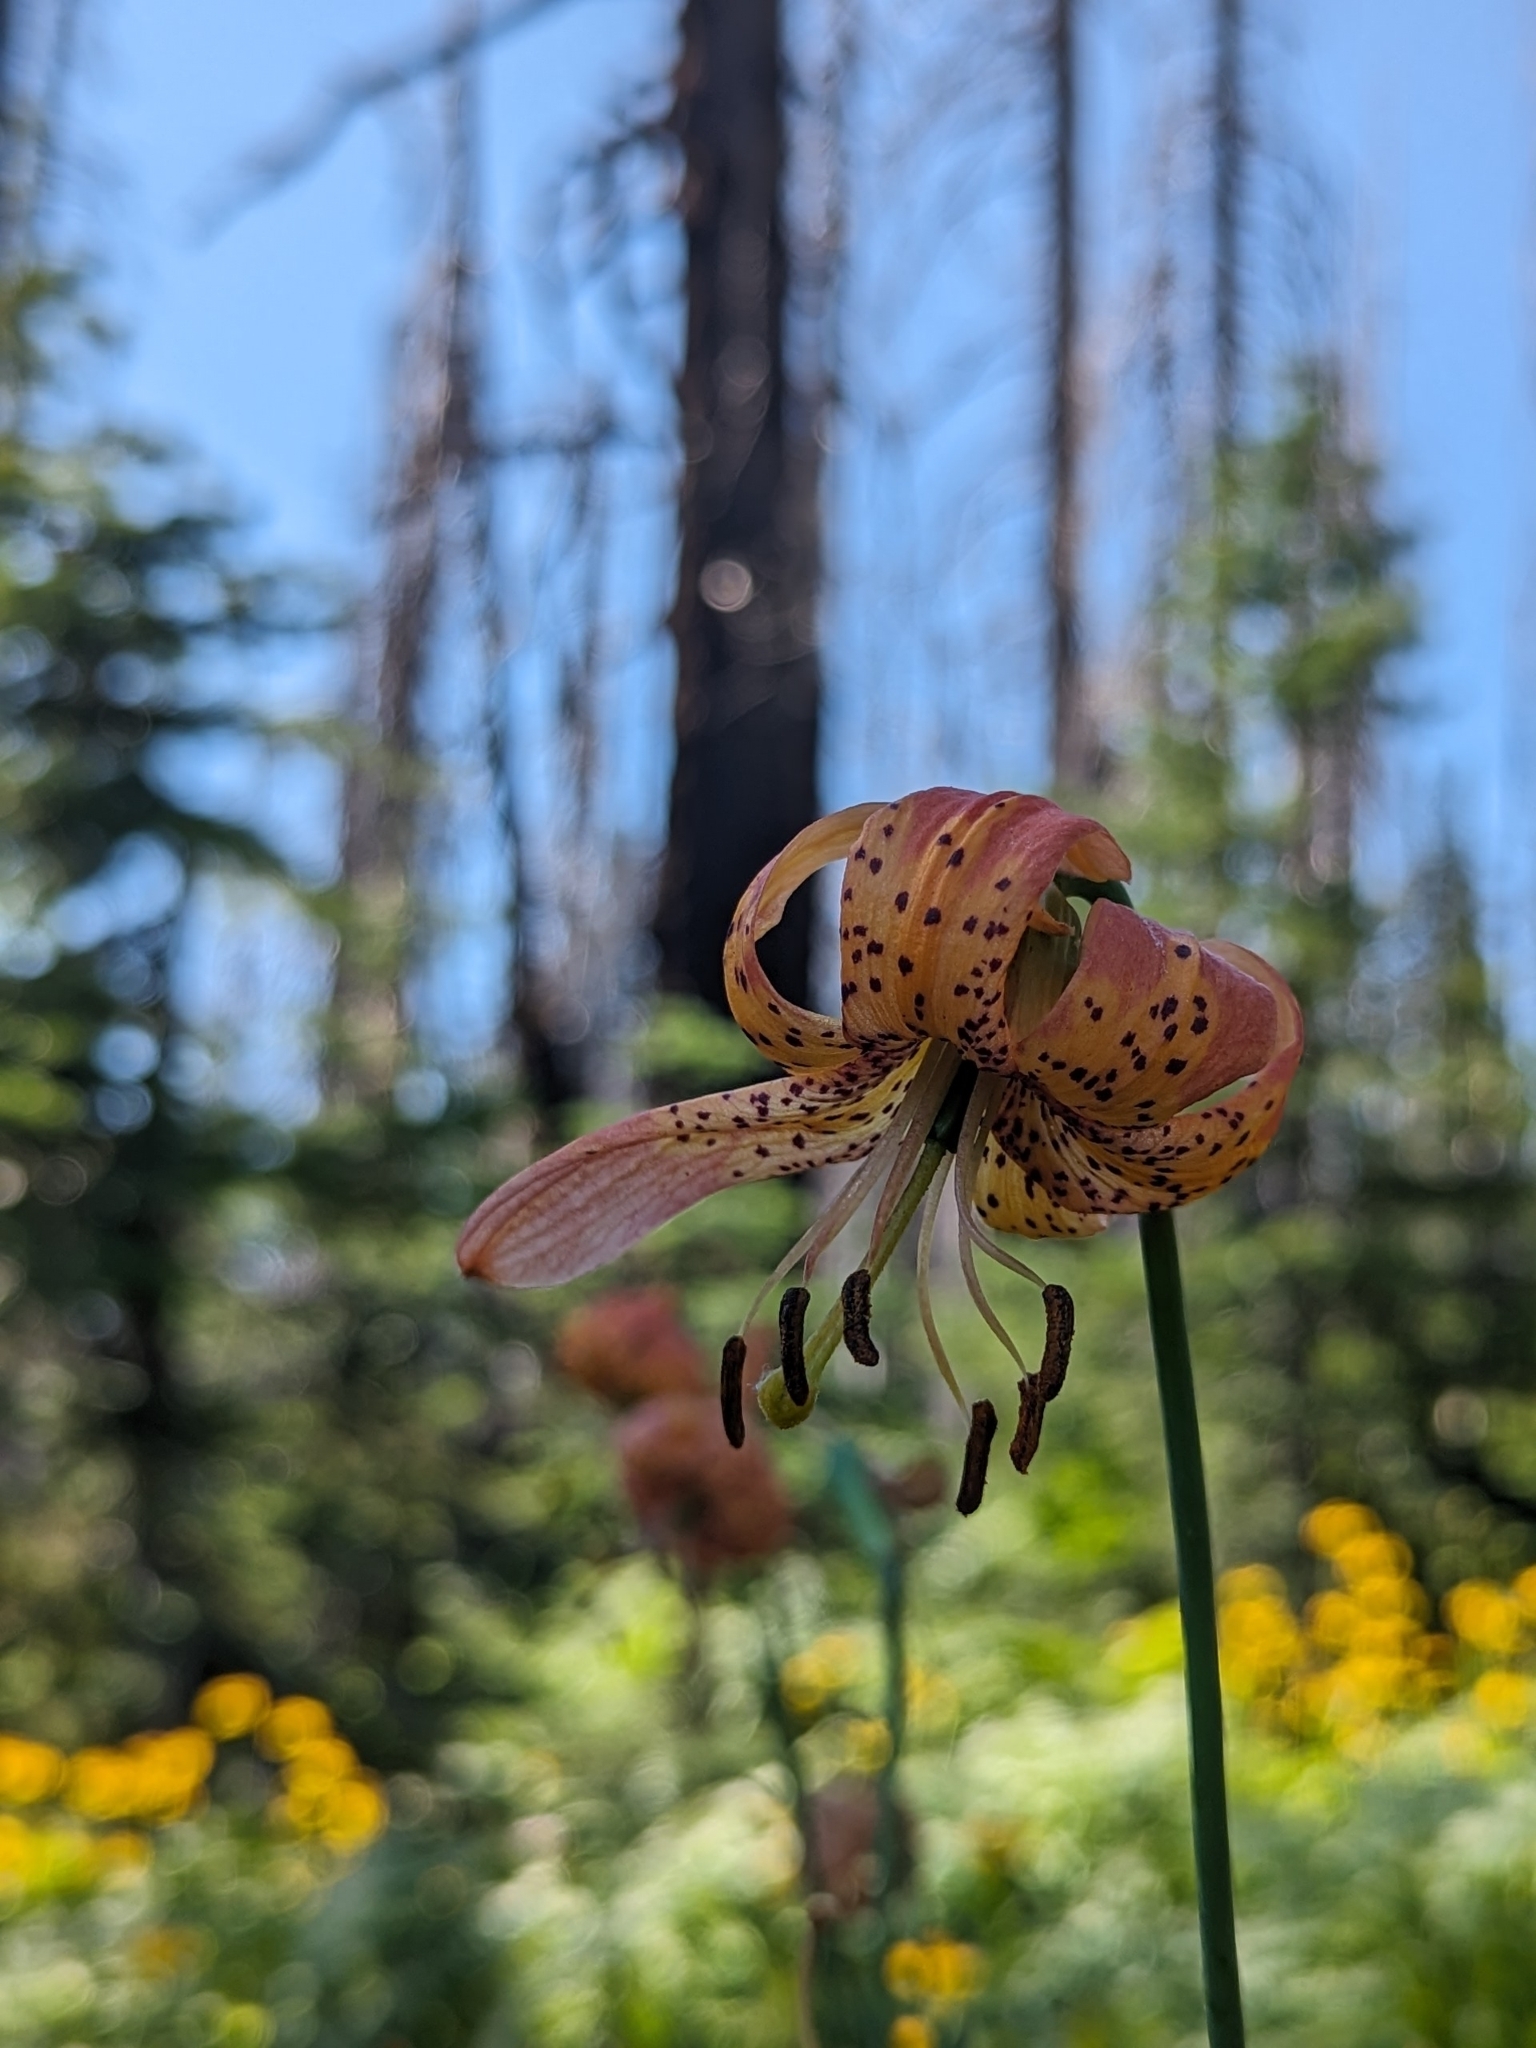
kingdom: Plantae
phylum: Tracheophyta
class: Liliopsida
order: Liliales
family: Liliaceae
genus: Lilium
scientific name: Lilium pardalinum
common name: Panther lily
